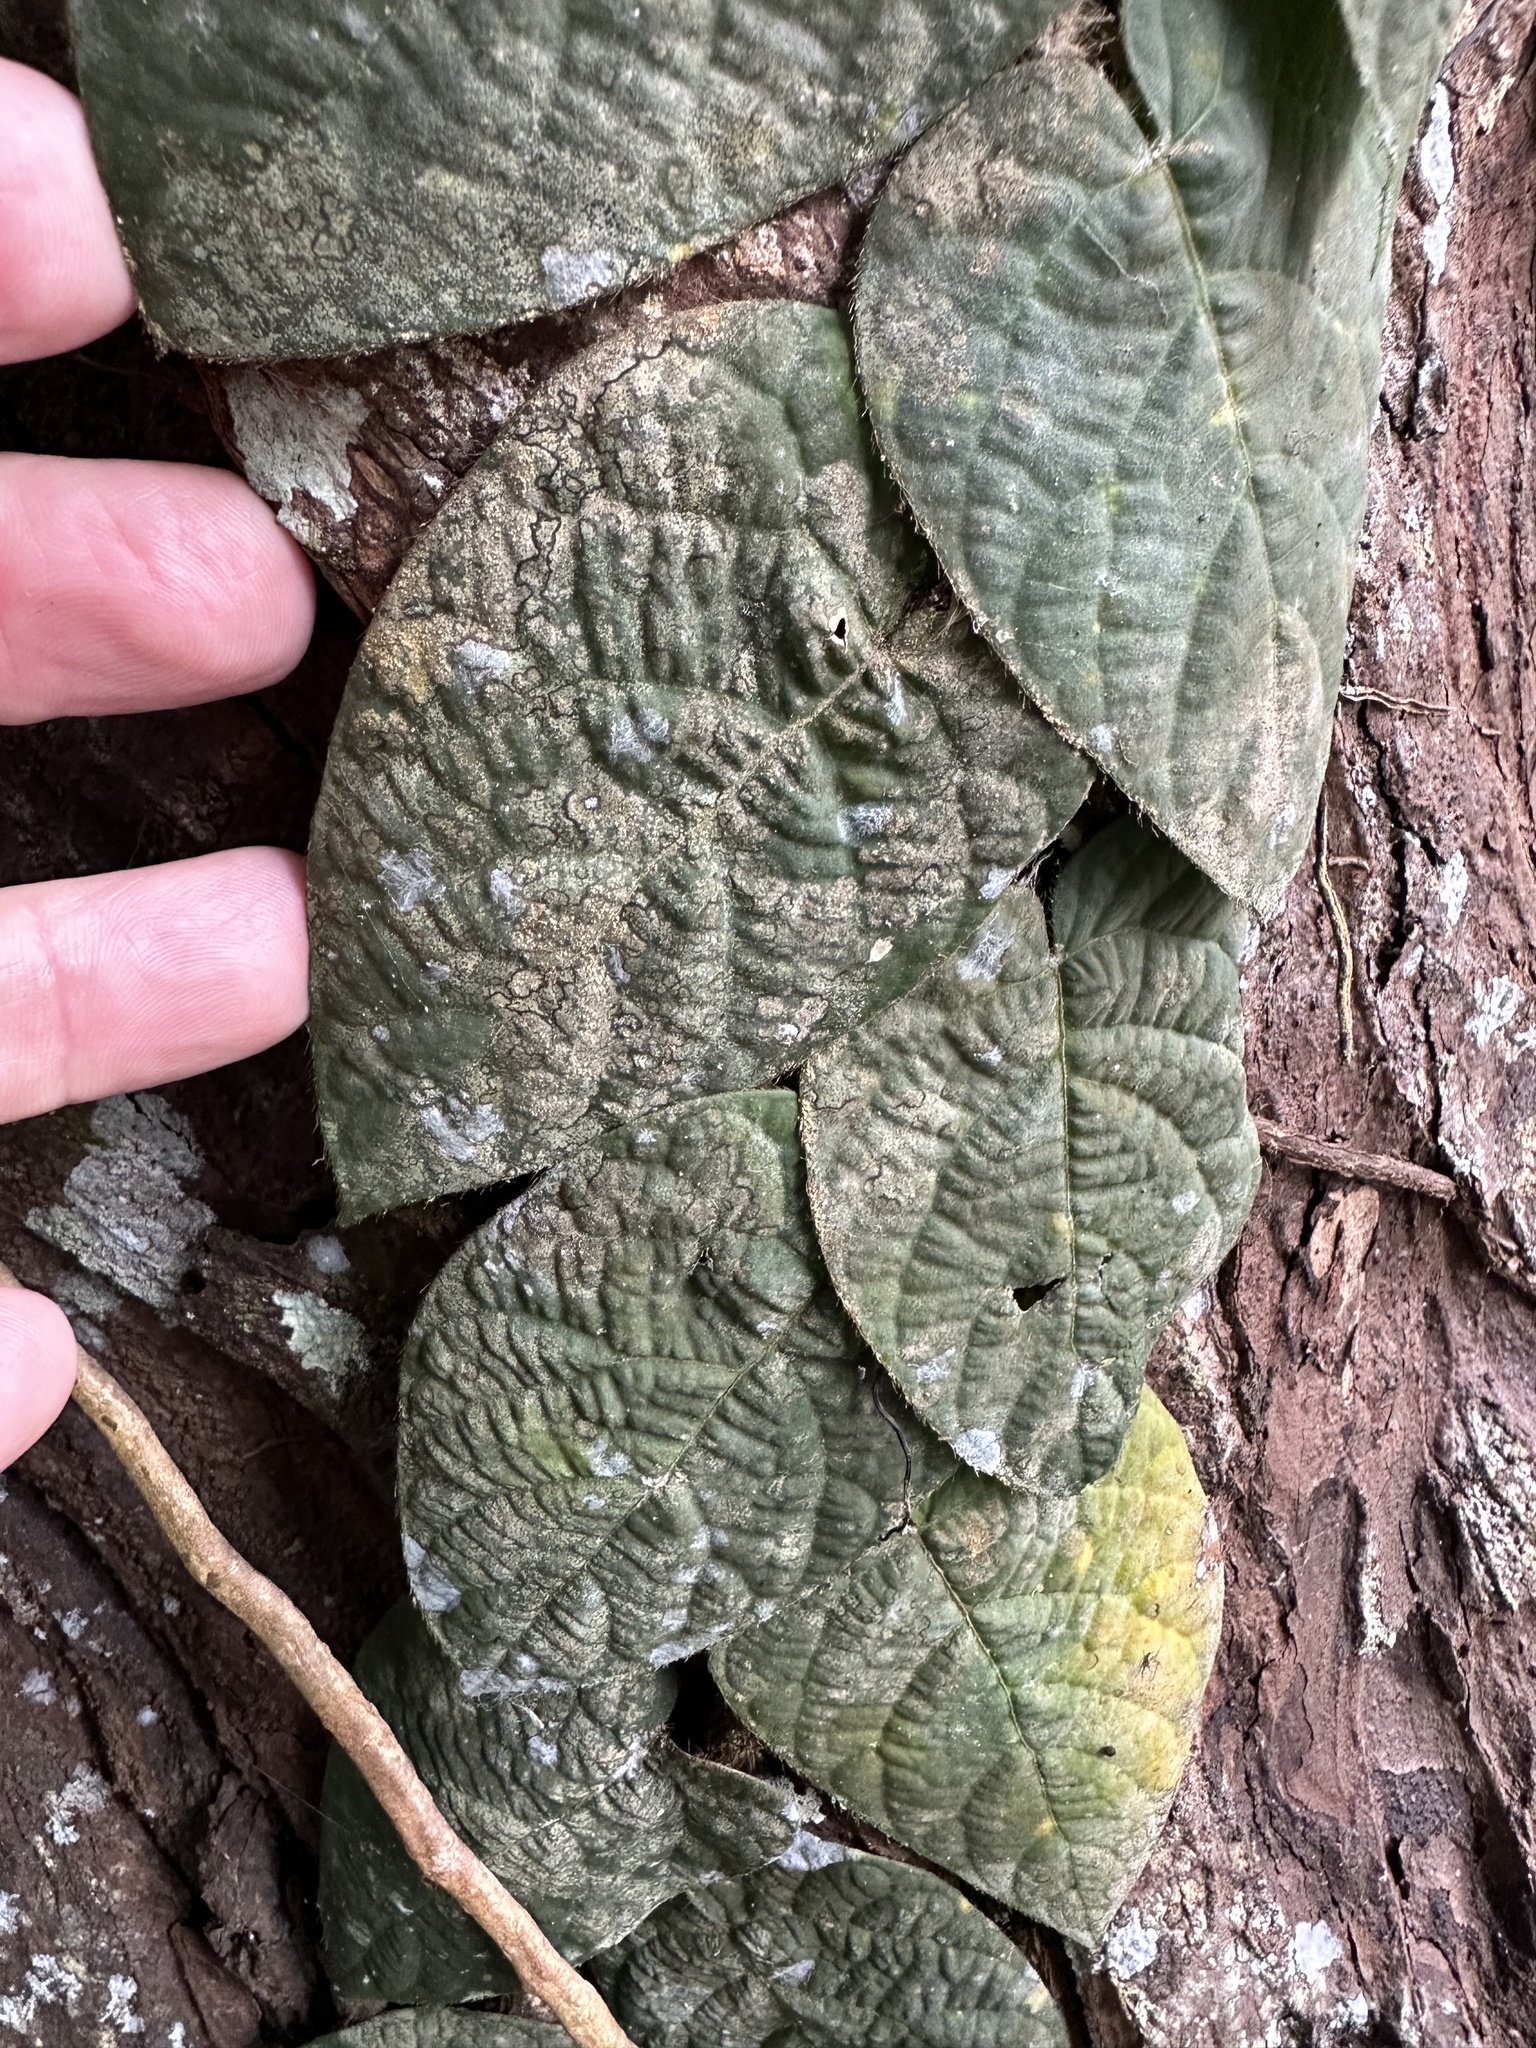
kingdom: Plantae
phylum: Tracheophyta
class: Magnoliopsida
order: Rosales
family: Moraceae
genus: Ficus
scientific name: Ficus villosa
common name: Villous fig
